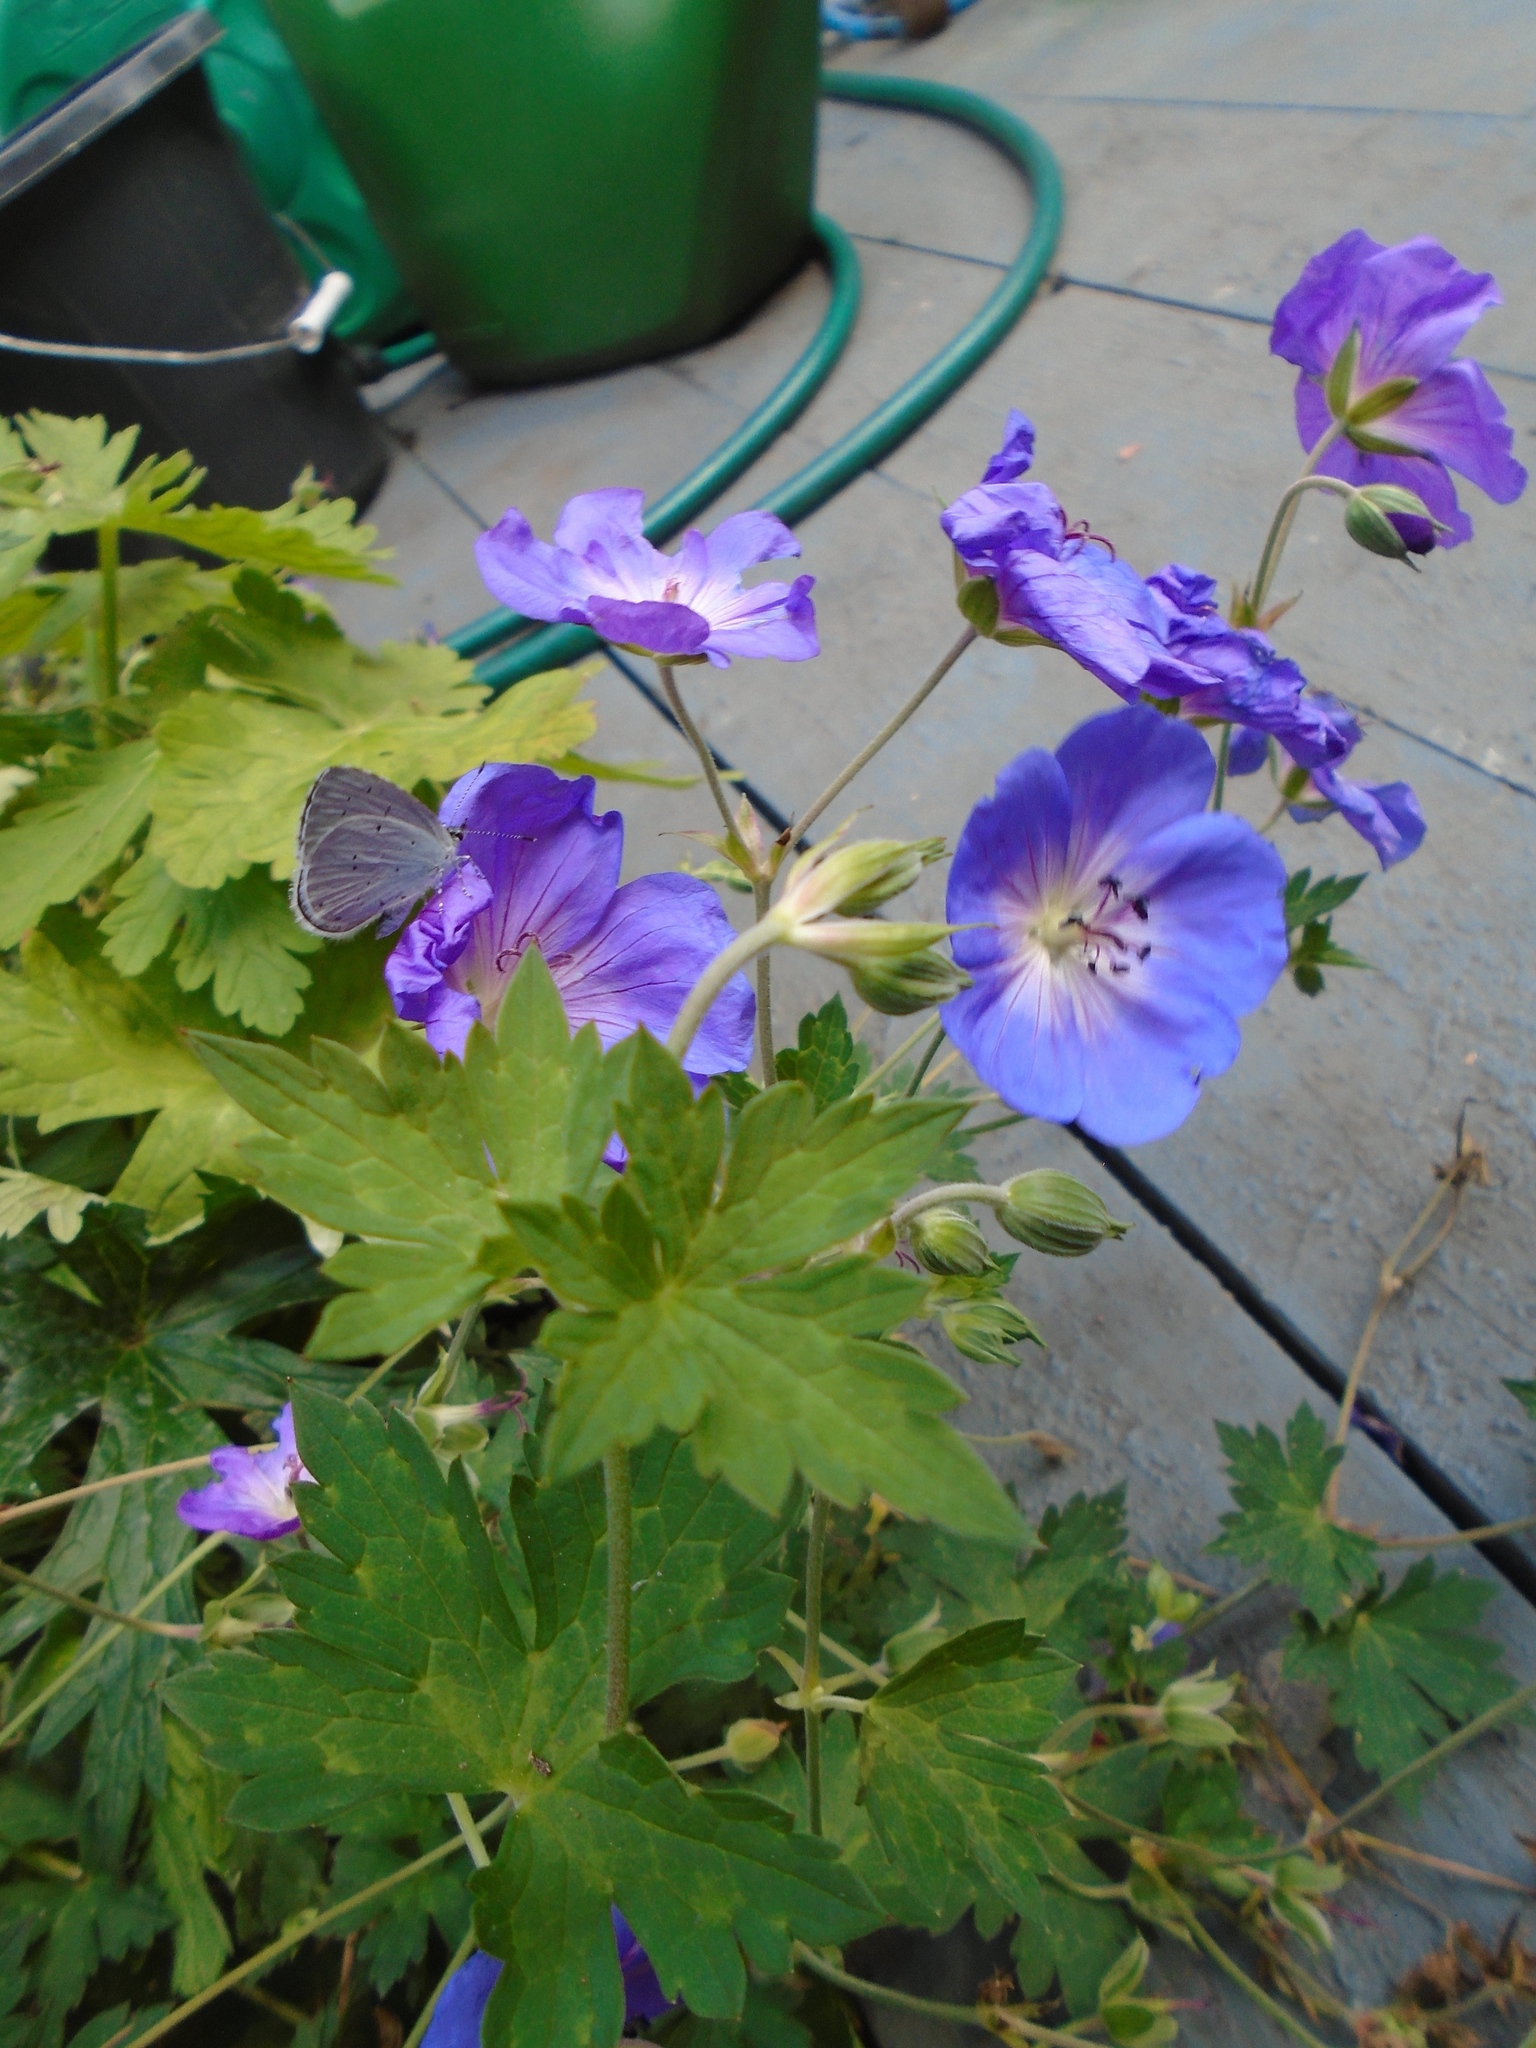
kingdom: Animalia
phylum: Arthropoda
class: Insecta
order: Lepidoptera
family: Lycaenidae
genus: Celastrina
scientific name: Celastrina argiolus
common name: Holly blue
